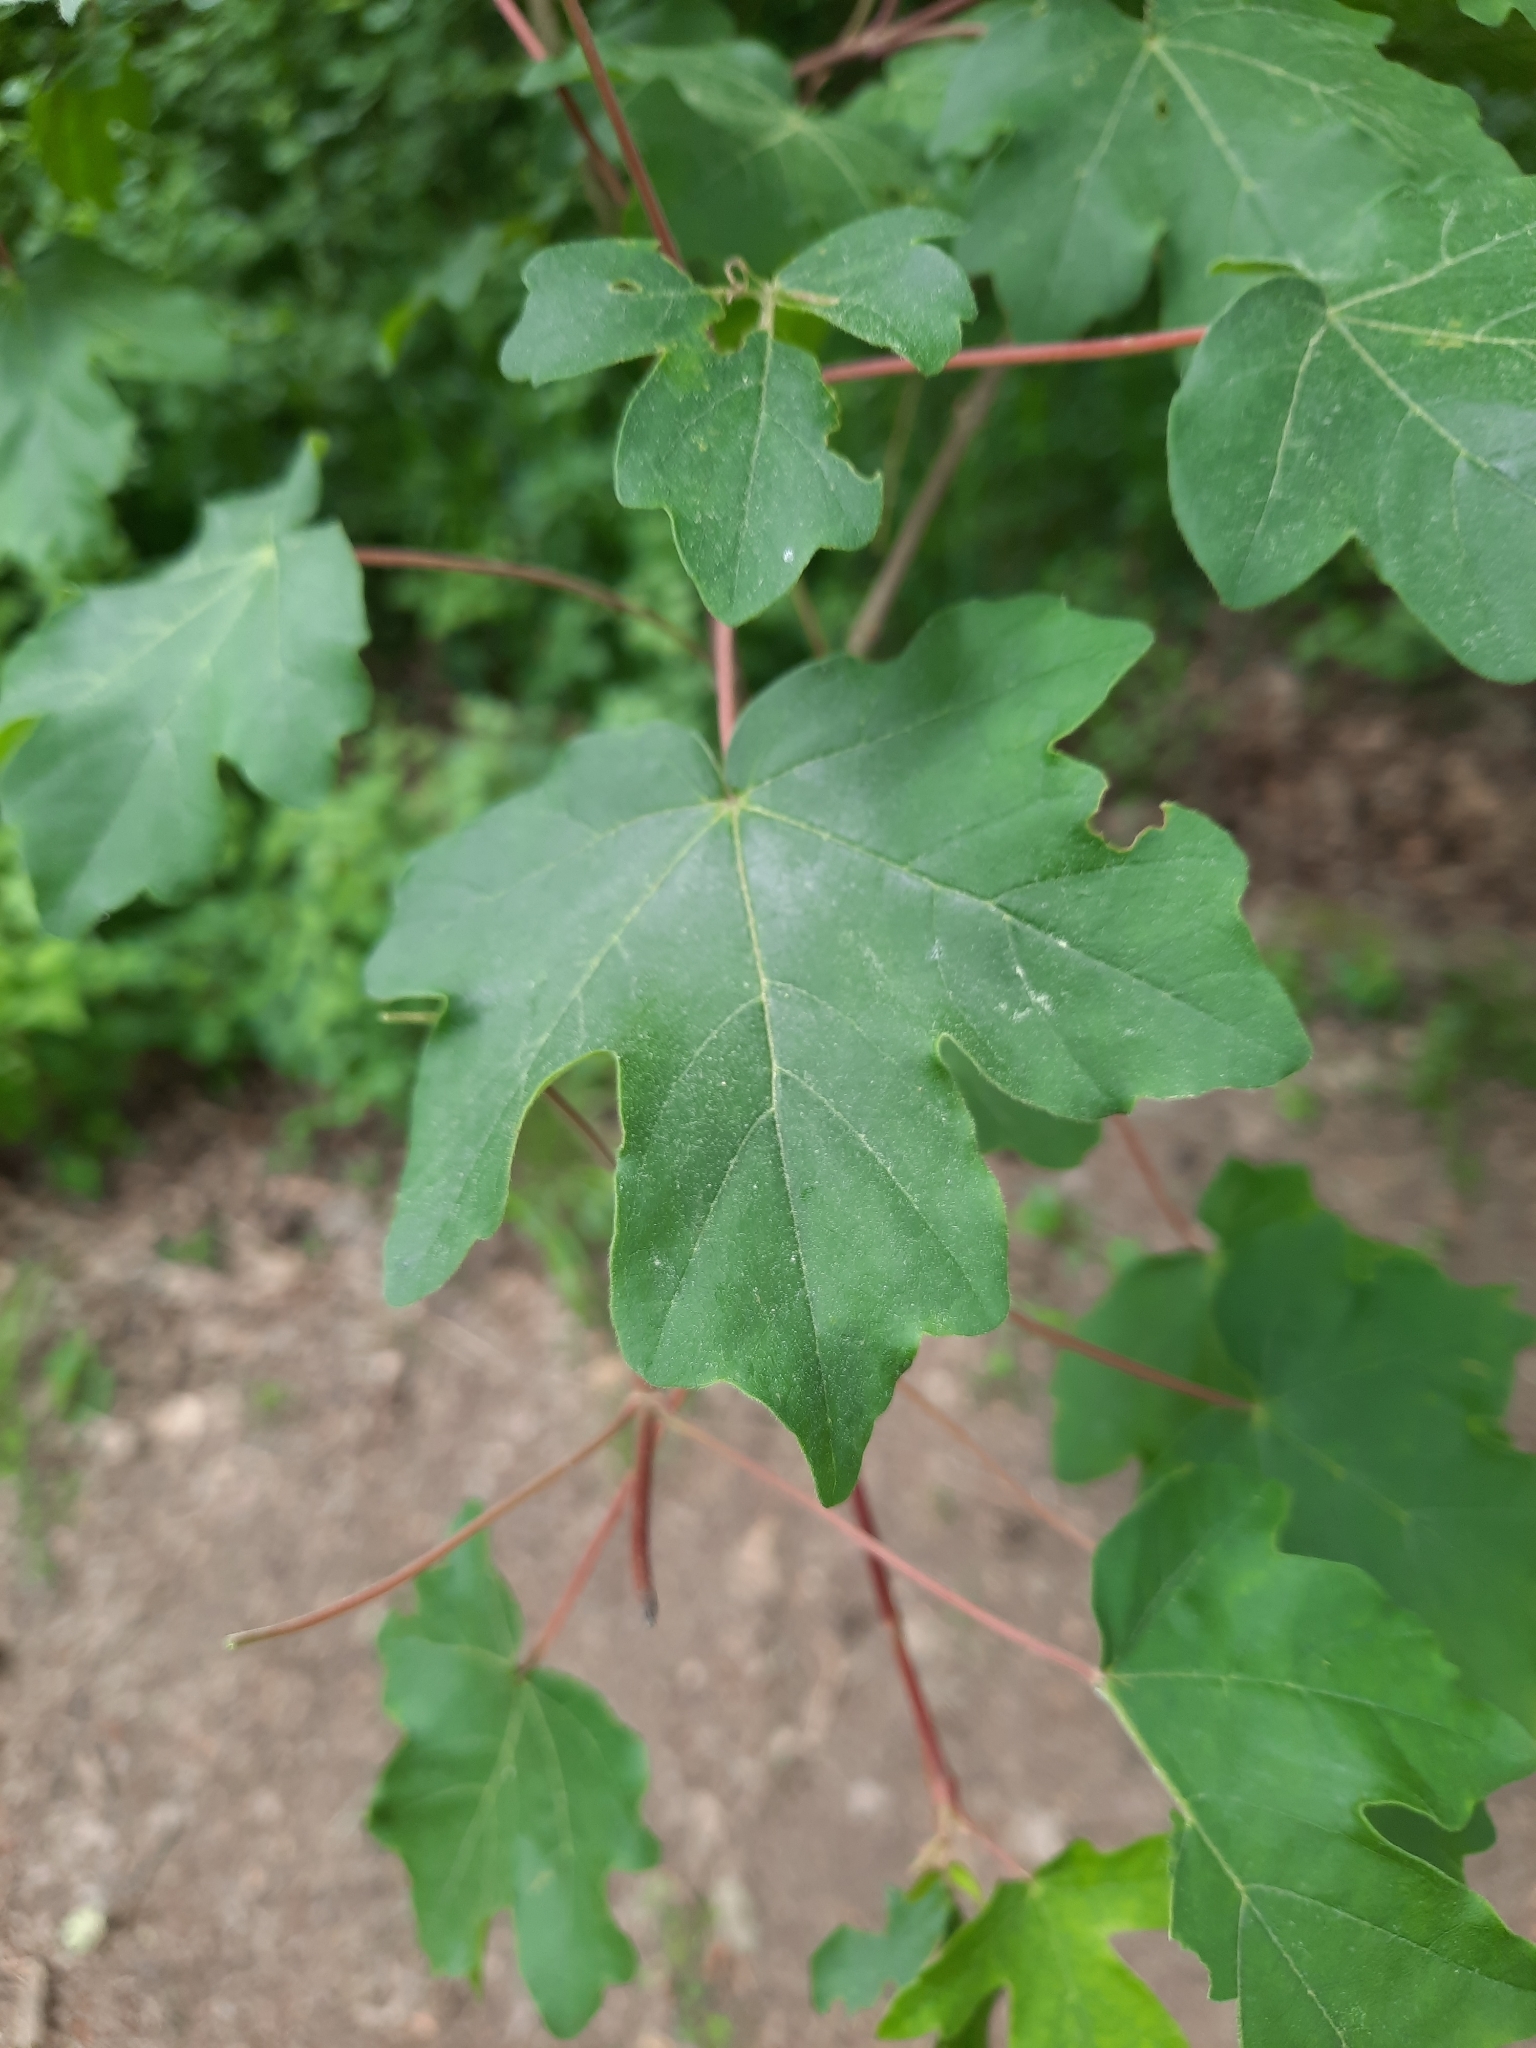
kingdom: Plantae
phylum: Tracheophyta
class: Magnoliopsida
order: Sapindales
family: Sapindaceae
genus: Acer
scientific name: Acer campestre
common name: Field maple
